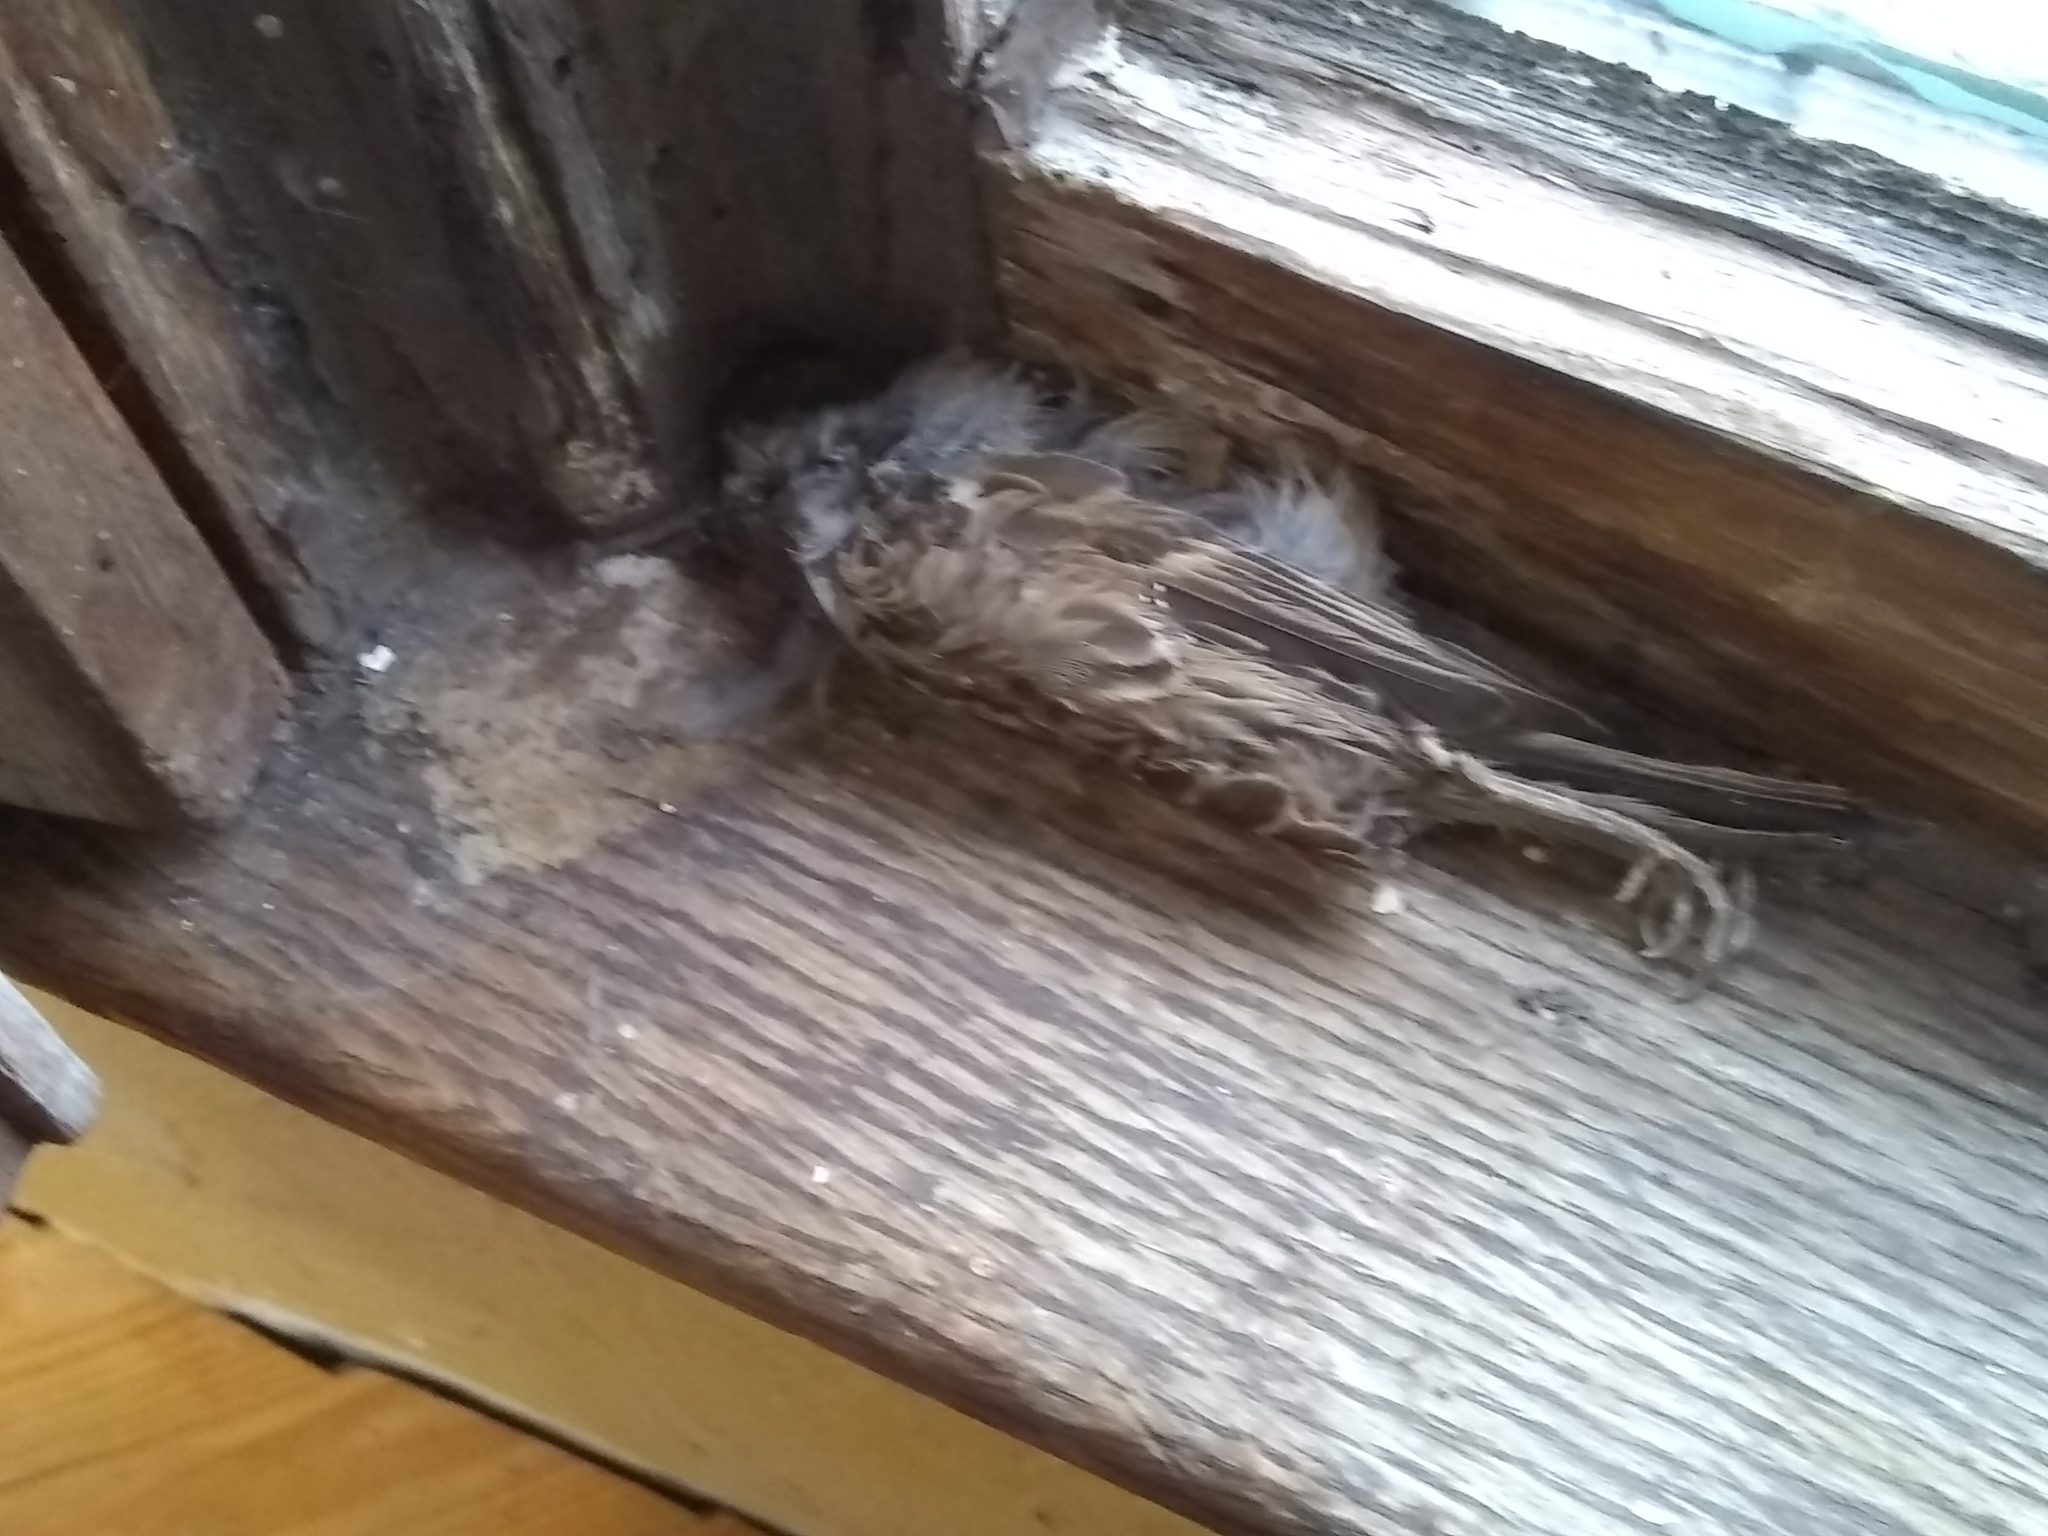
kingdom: Animalia
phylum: Chordata
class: Aves
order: Passeriformes
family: Passeridae
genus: Passer
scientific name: Passer domesticus
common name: House sparrow
